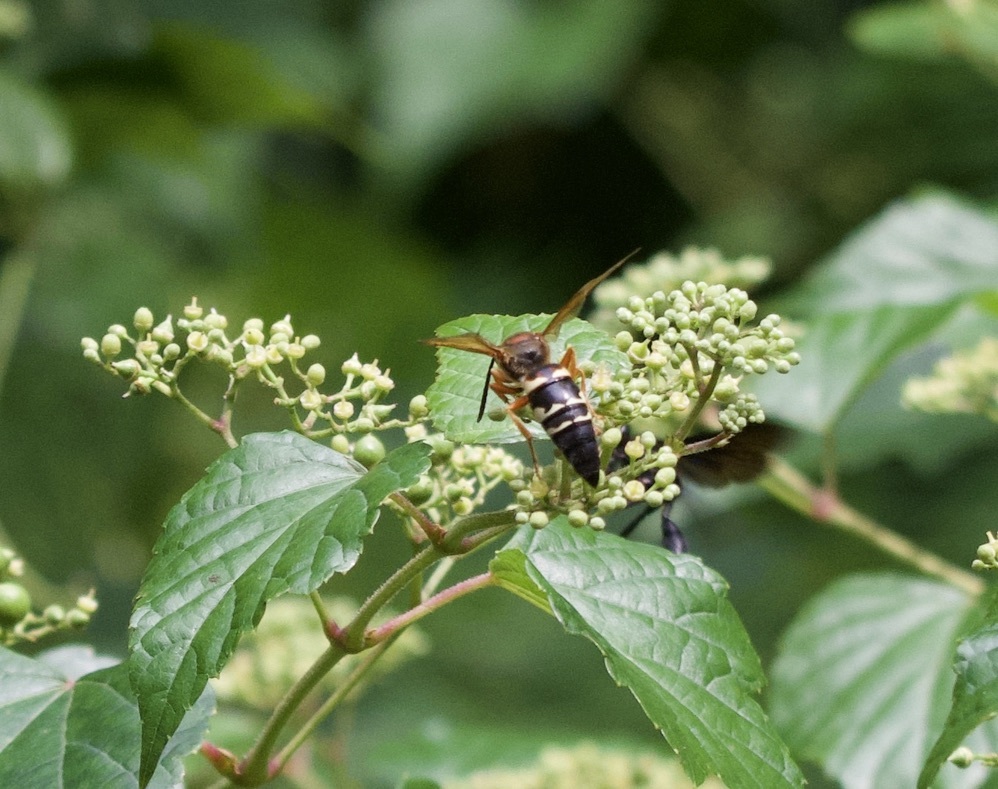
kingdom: Animalia
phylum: Arthropoda
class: Insecta
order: Hymenoptera
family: Crabronidae
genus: Sphecius
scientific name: Sphecius speciosus
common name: Cicada killer
